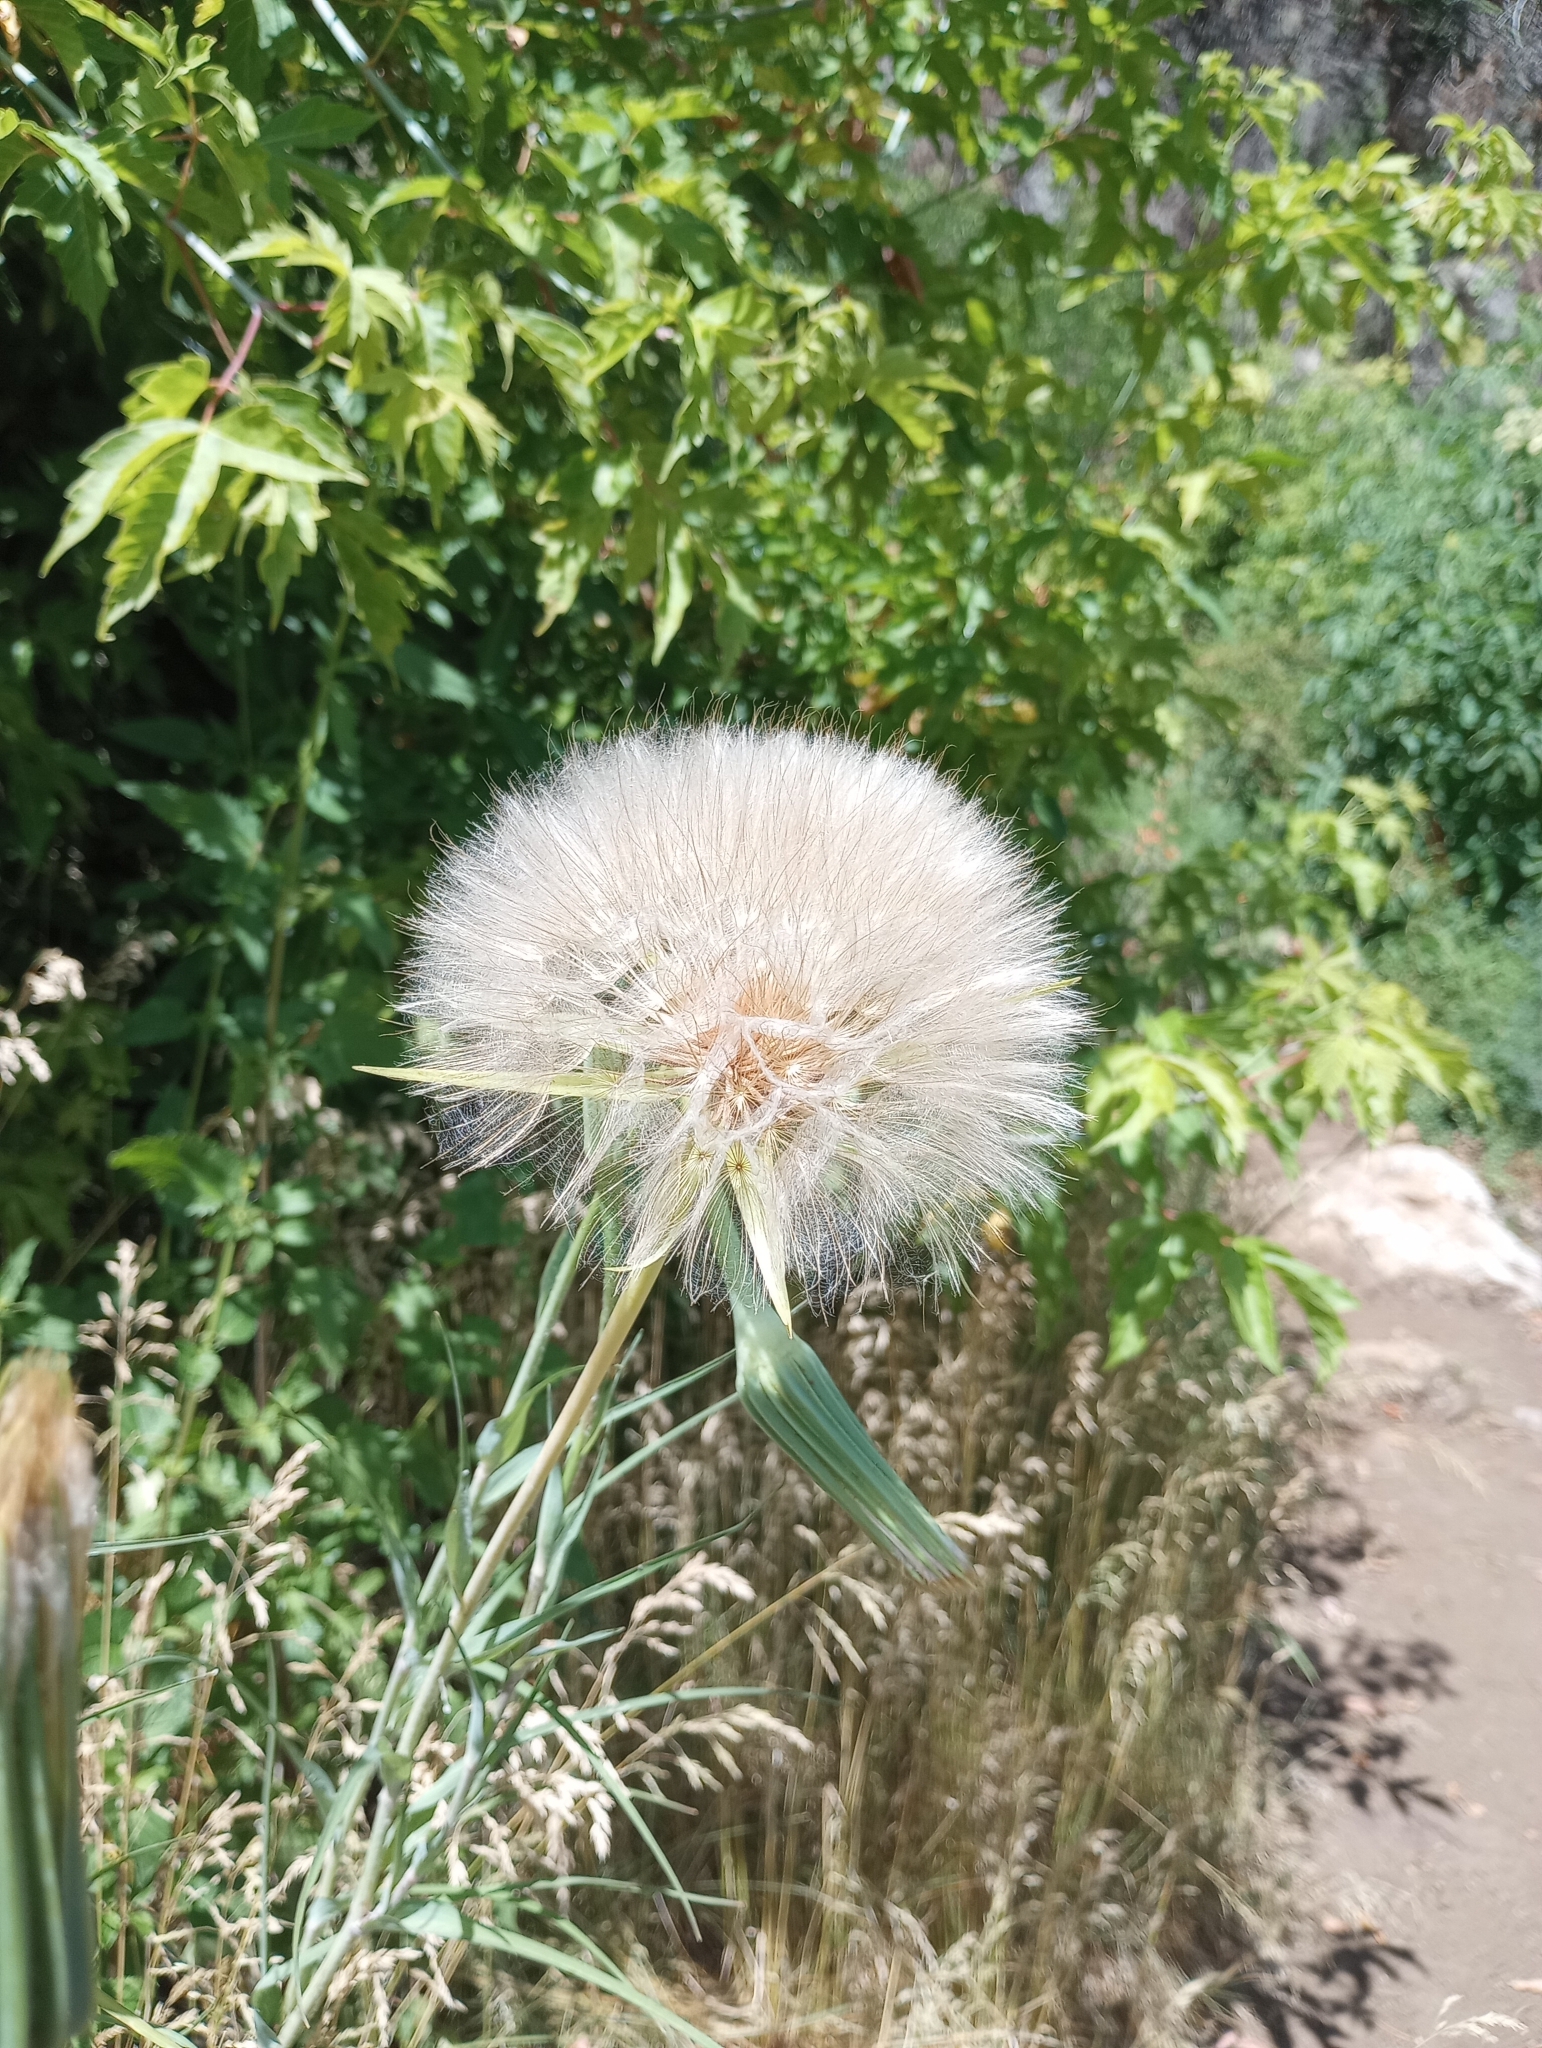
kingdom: Plantae
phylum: Tracheophyta
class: Magnoliopsida
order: Asterales
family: Asteraceae
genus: Tragopogon
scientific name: Tragopogon dubius
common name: Yellow salsify
